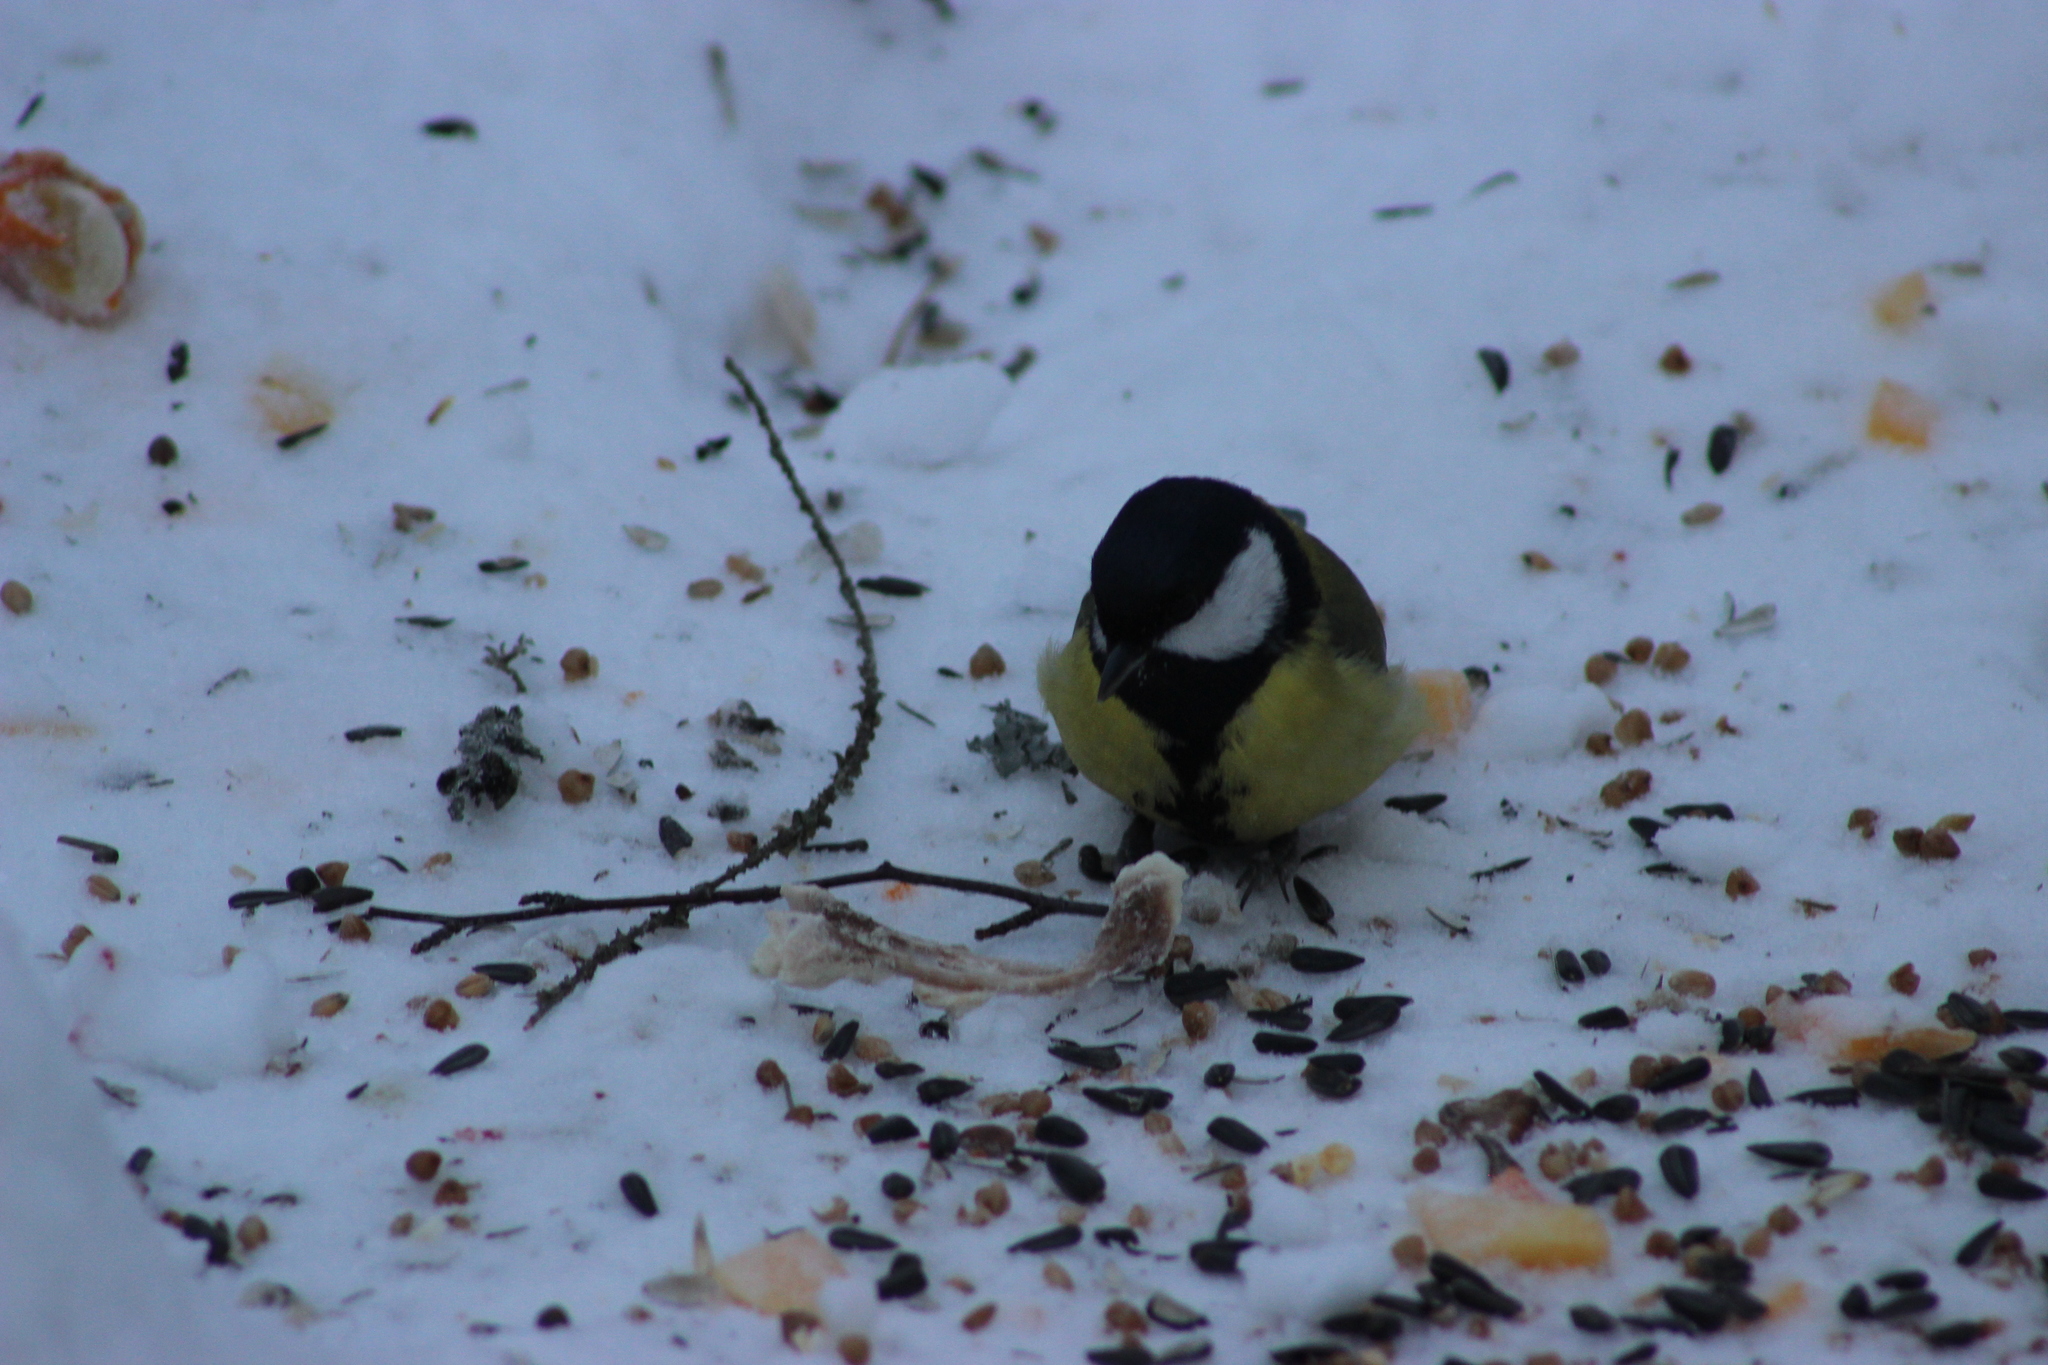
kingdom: Animalia
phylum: Chordata
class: Aves
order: Passeriformes
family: Paridae
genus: Parus
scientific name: Parus major
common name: Great tit
